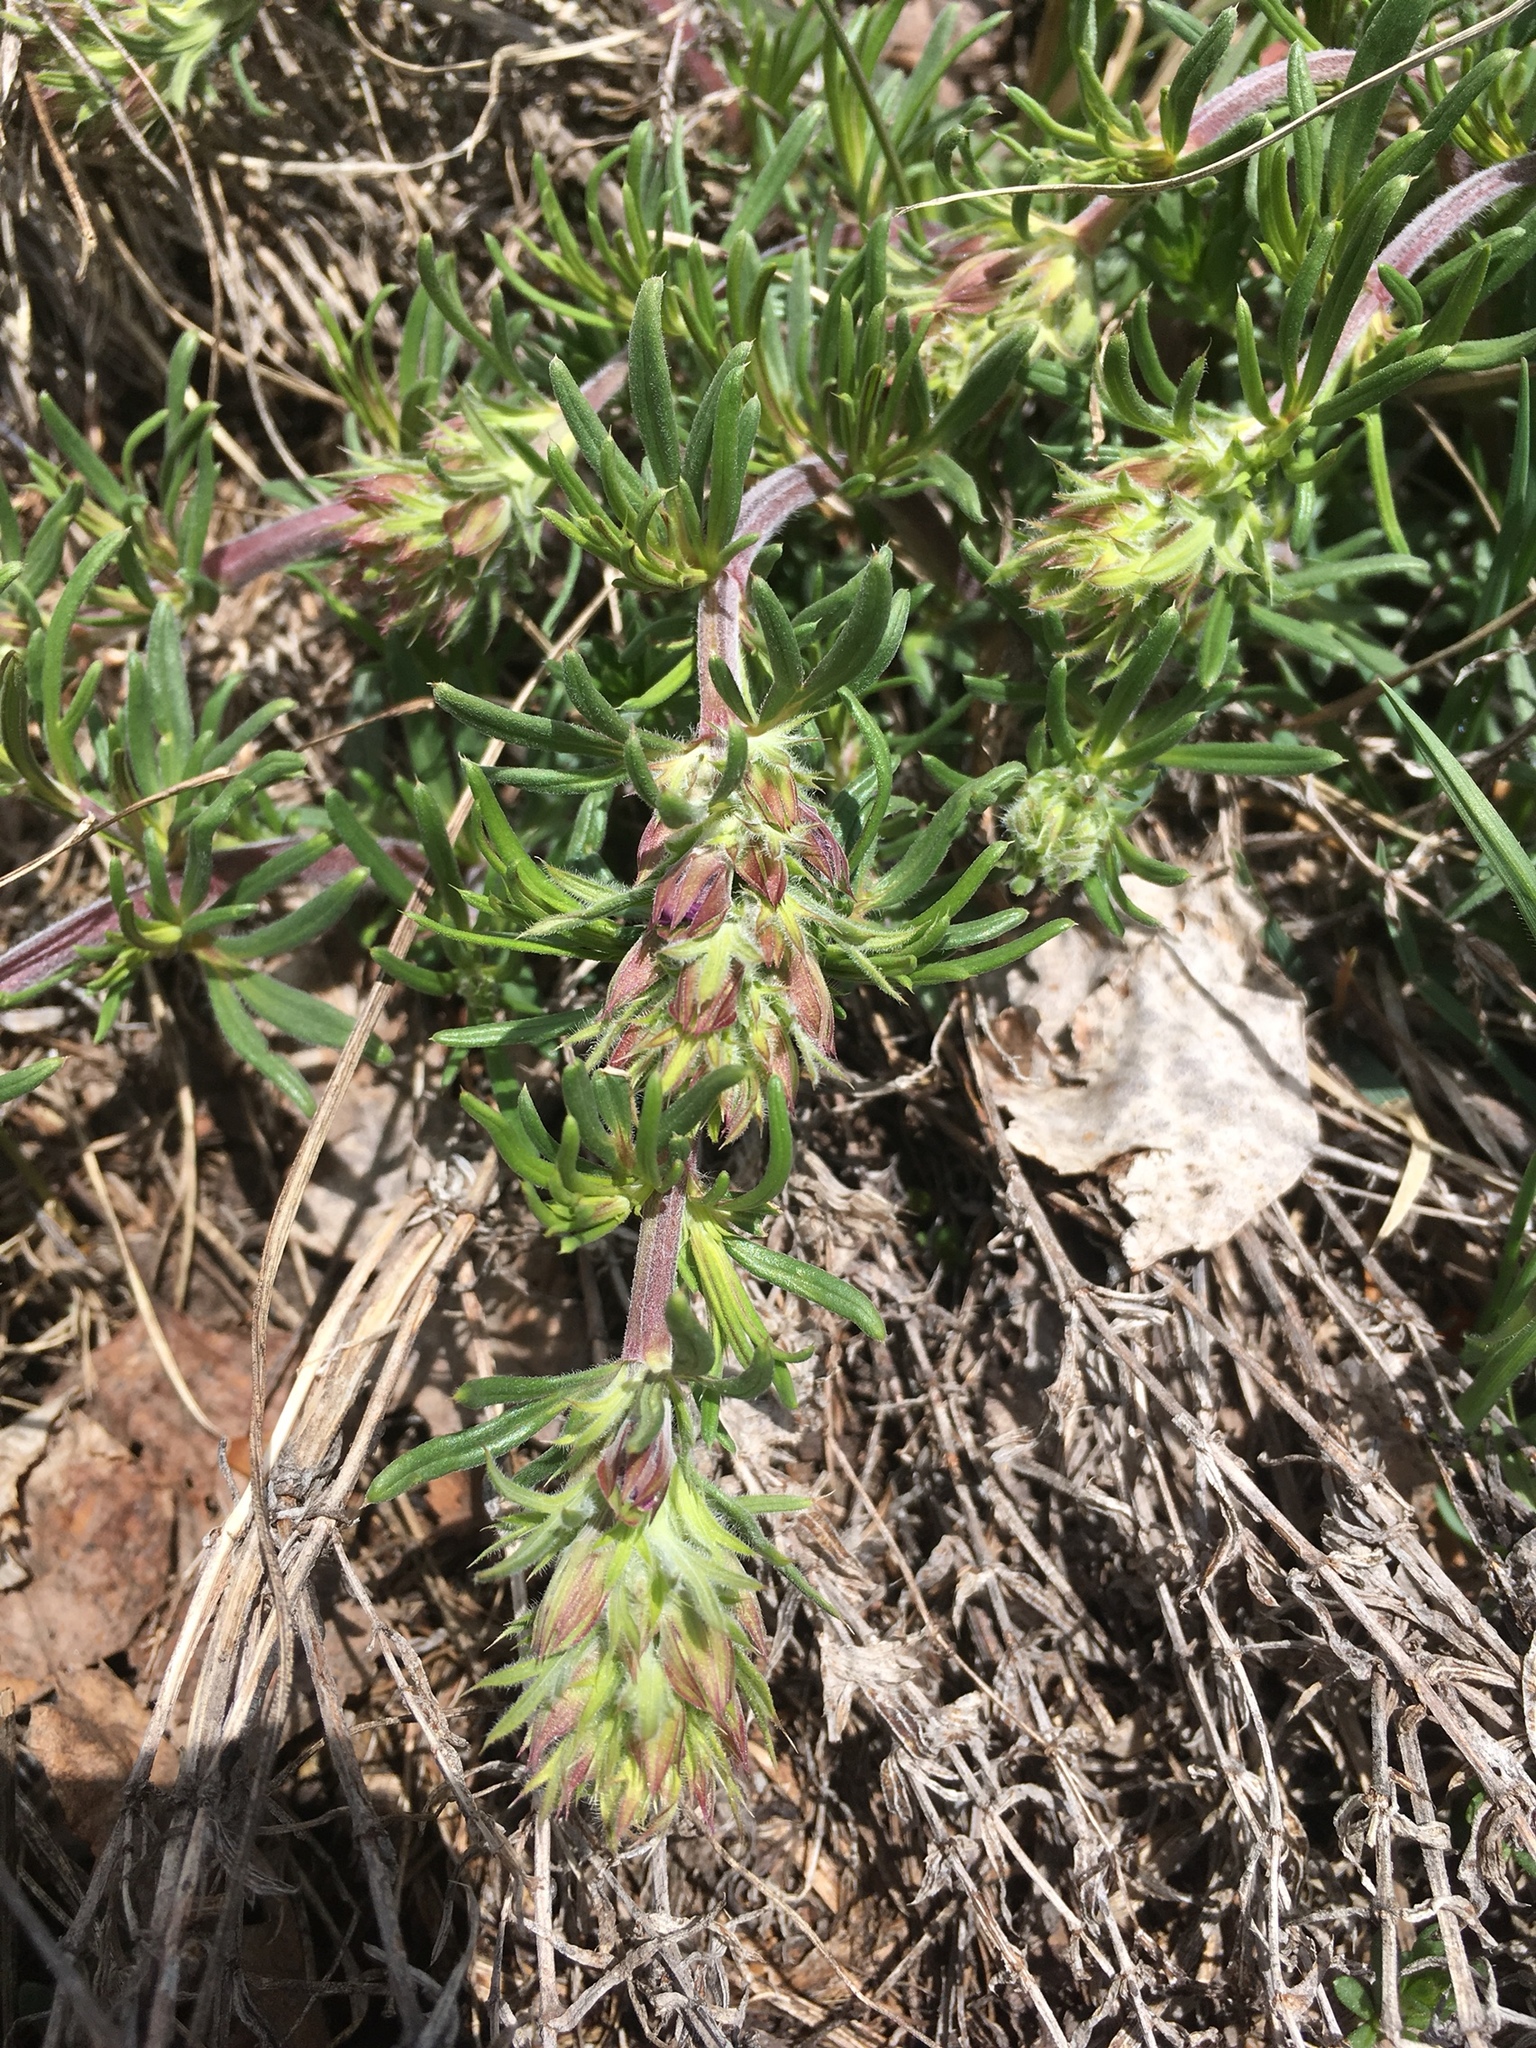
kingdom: Plantae
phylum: Tracheophyta
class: Magnoliopsida
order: Lamiales
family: Lamiaceae
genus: Dracocephalum
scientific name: Dracocephalum austriacum
